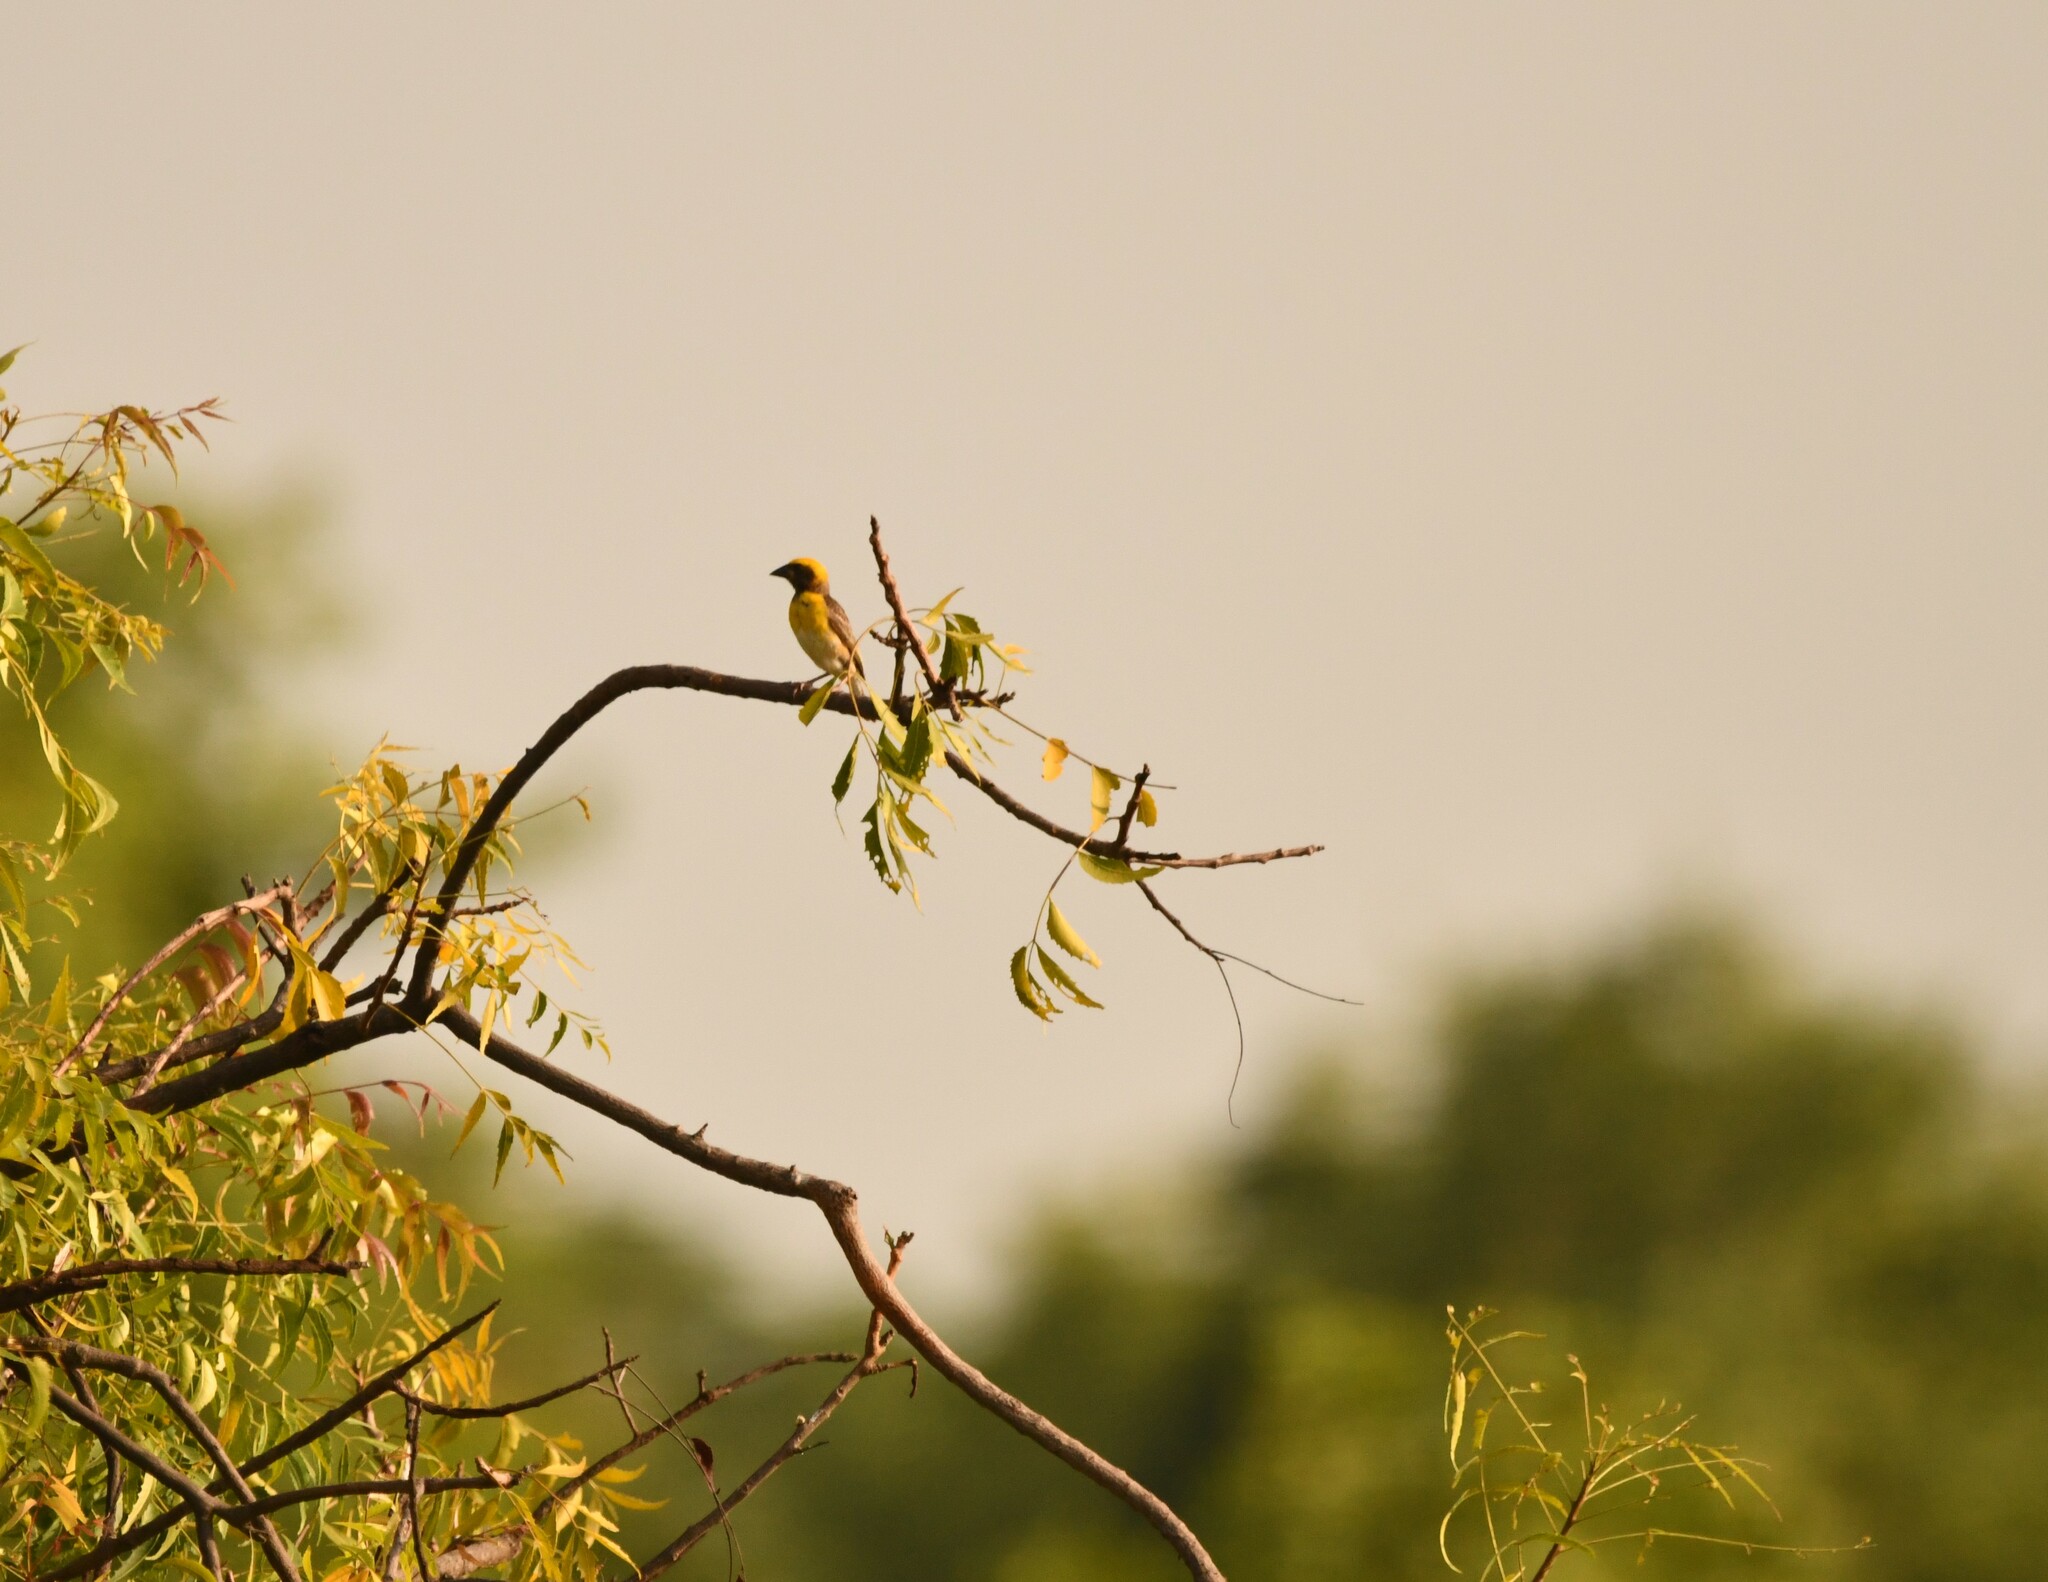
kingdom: Animalia
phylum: Chordata
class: Aves
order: Passeriformes
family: Ploceidae
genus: Ploceus
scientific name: Ploceus philippinus
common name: Baya weaver
